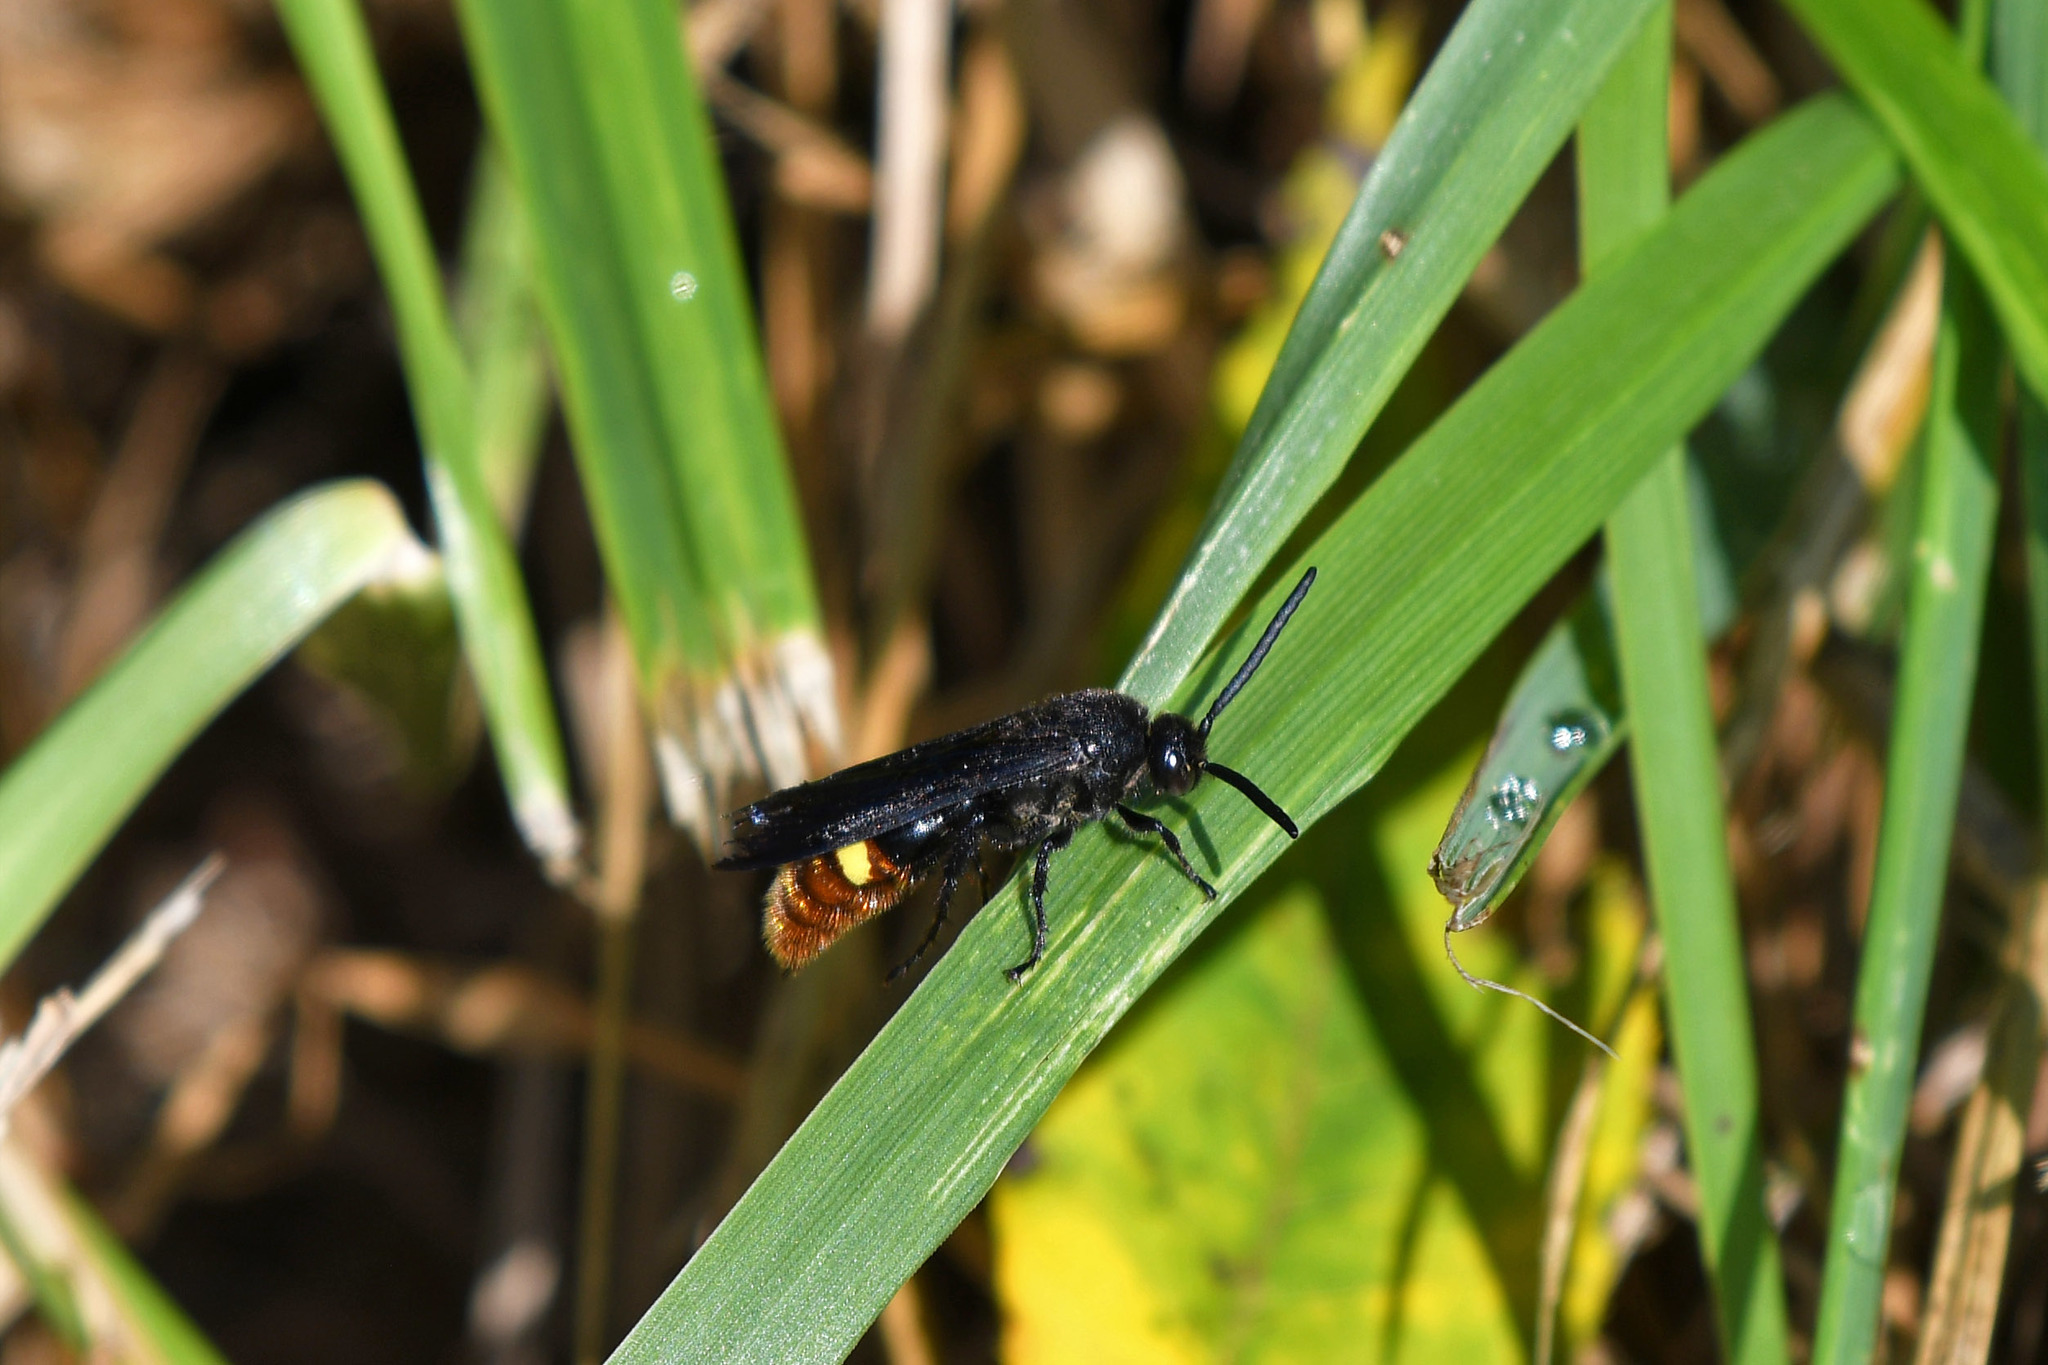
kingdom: Animalia
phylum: Arthropoda
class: Insecta
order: Hymenoptera
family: Scoliidae
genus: Scolia
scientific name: Scolia dubia
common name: Blue-winged scoliid wasp
